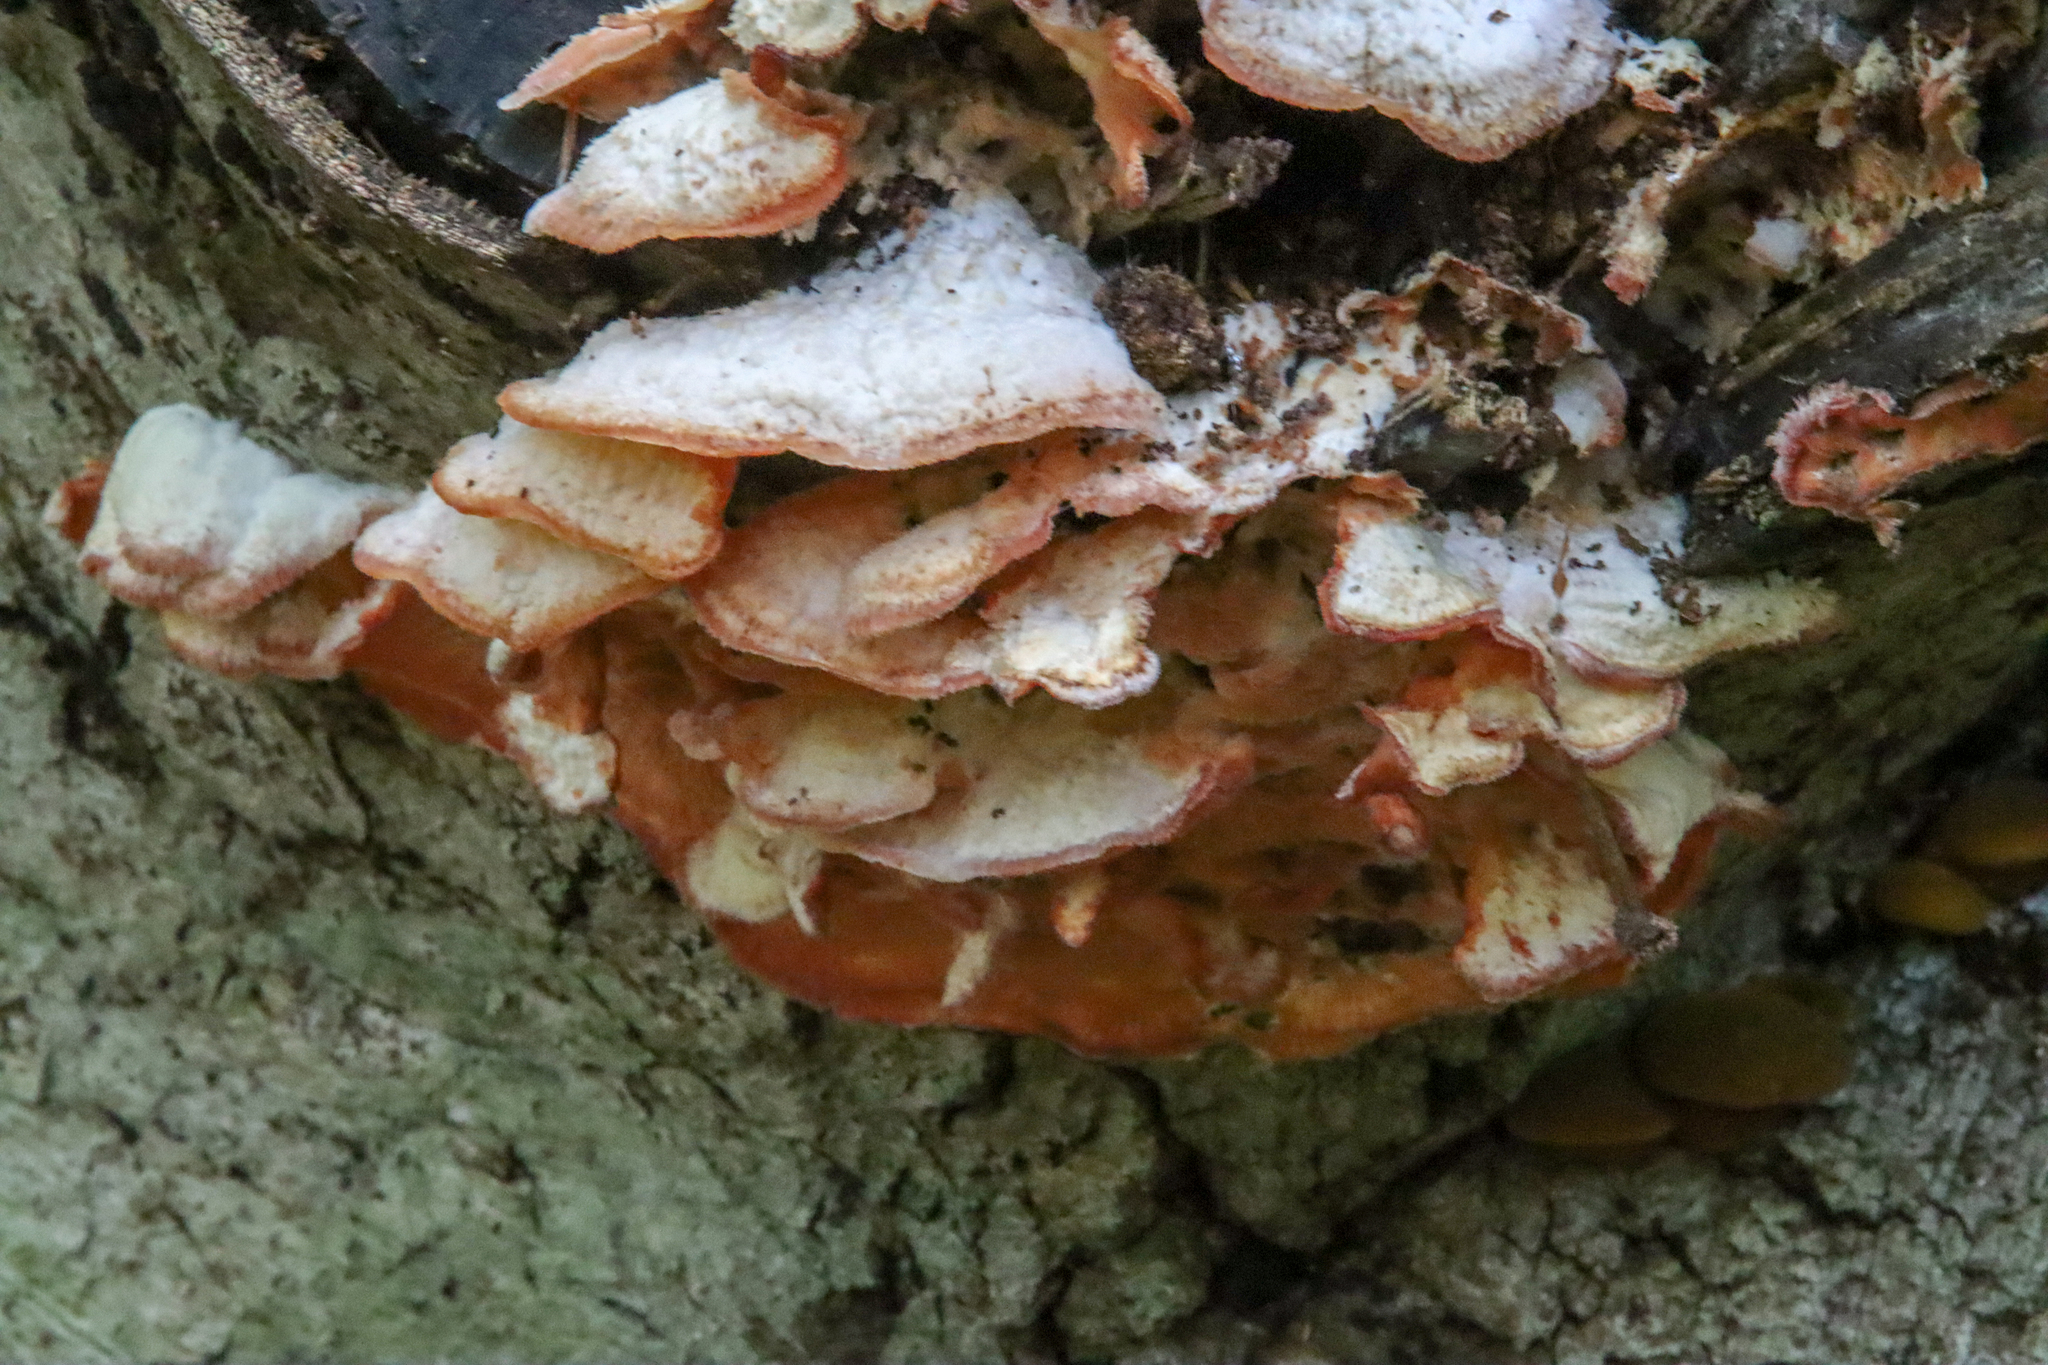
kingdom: Fungi
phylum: Basidiomycota
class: Agaricomycetes
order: Polyporales
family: Meruliaceae
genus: Phlebia
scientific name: Phlebia tremellosa
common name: Jelly rot
